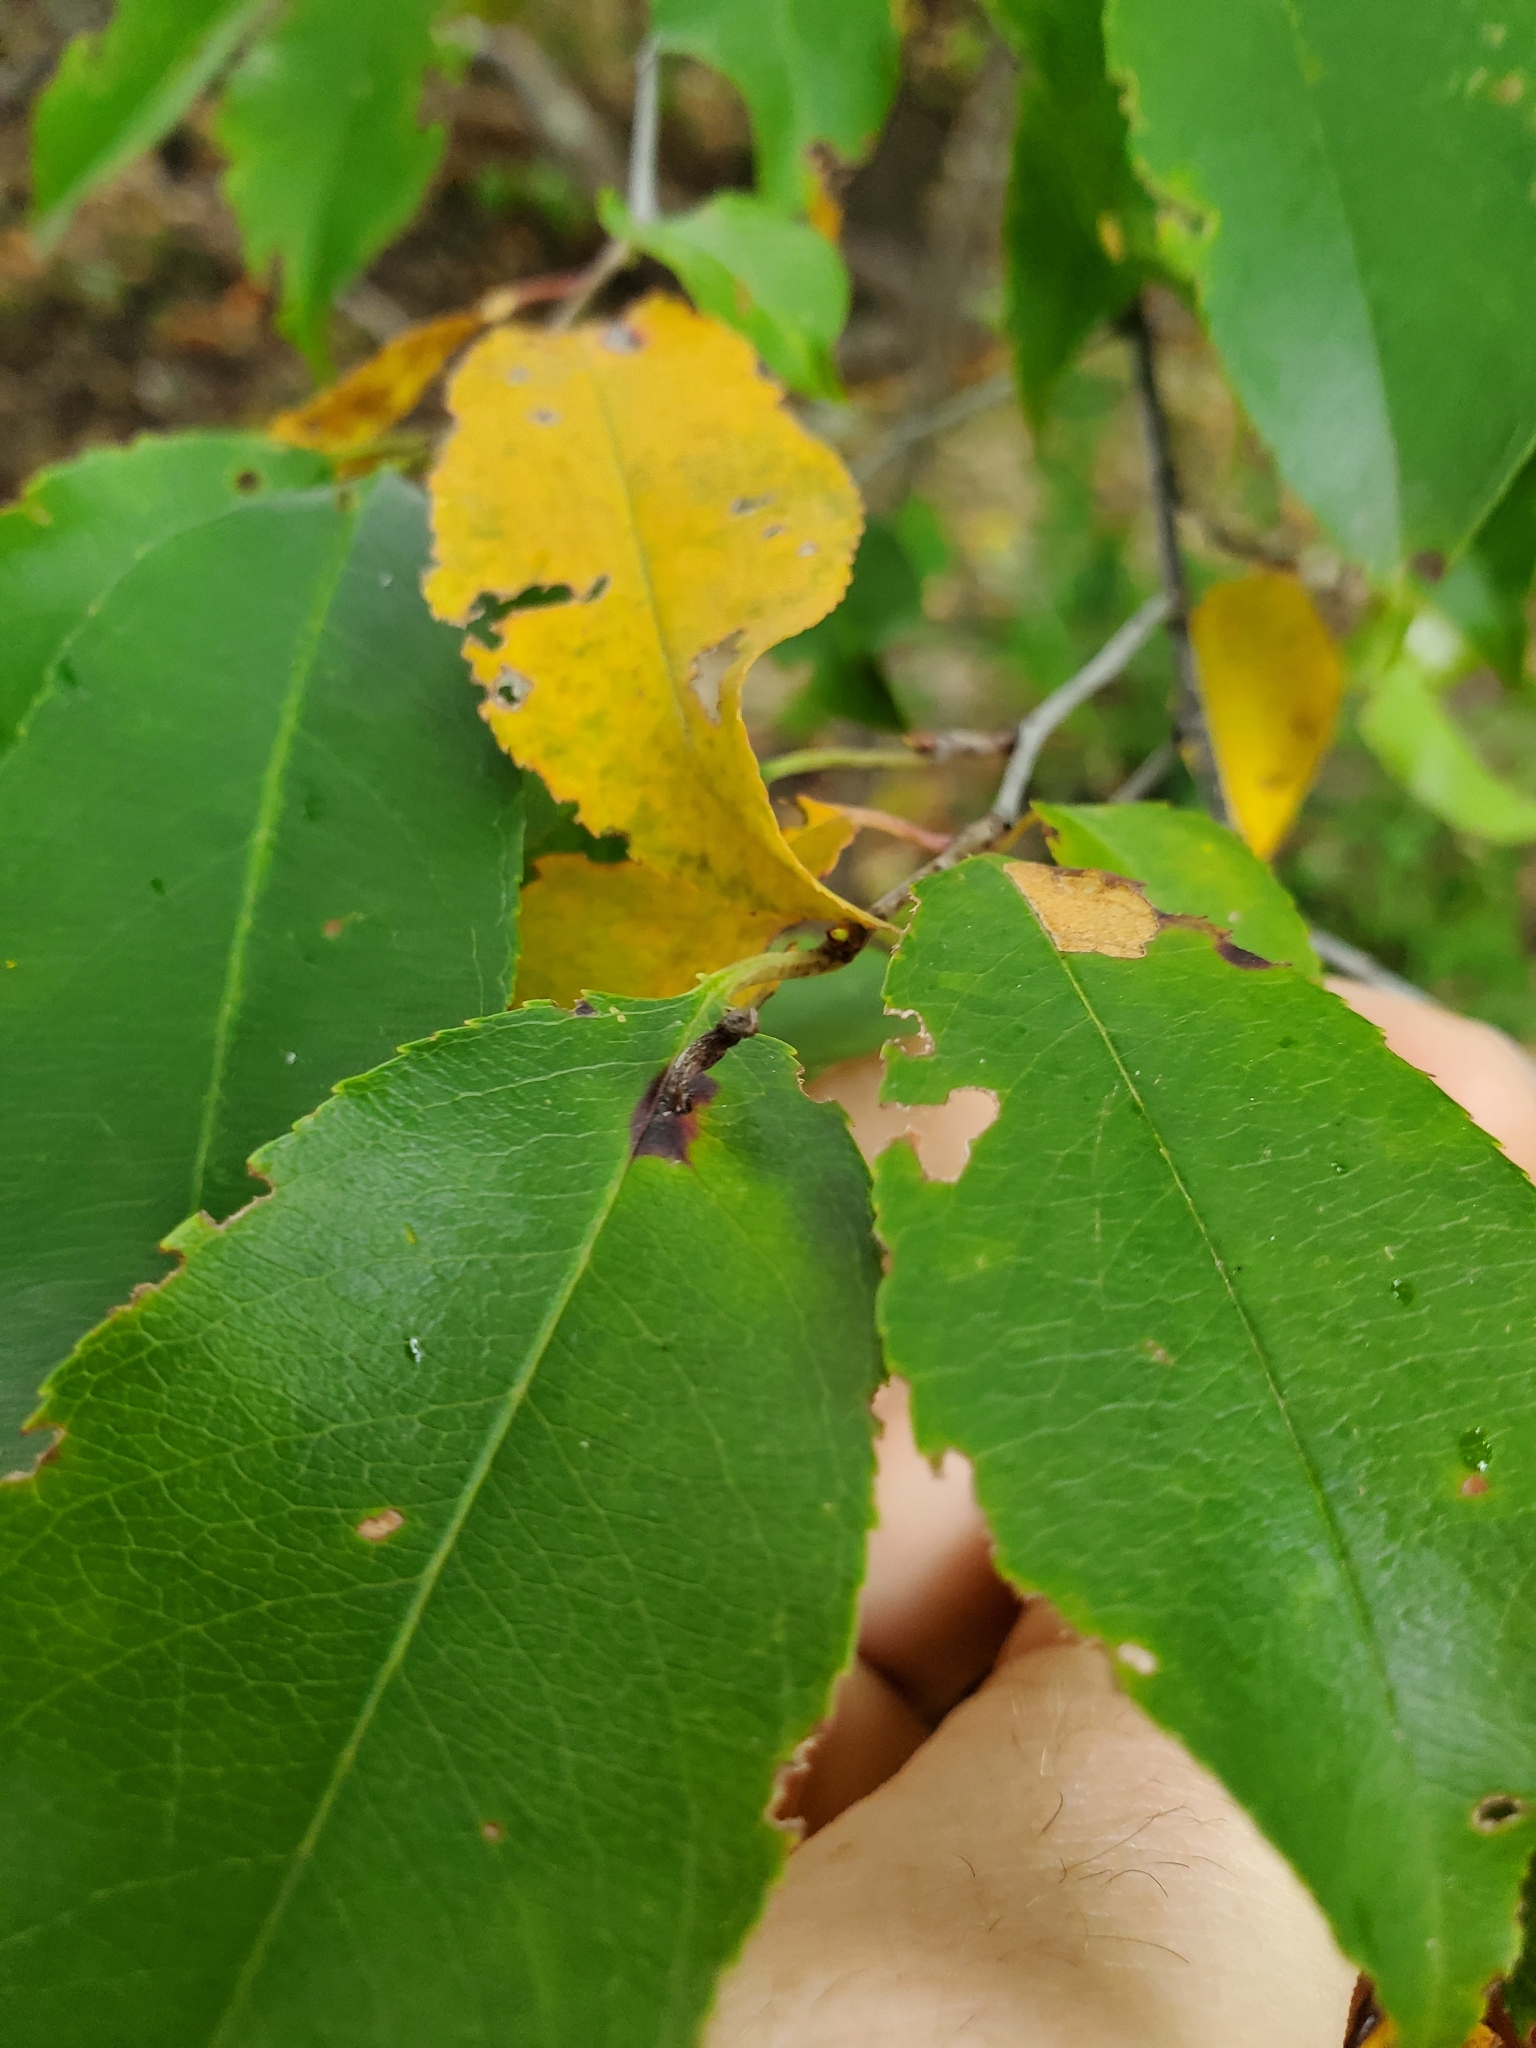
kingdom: Animalia
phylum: Arthropoda
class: Arachnida
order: Trombidiformes
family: Eriophyidae
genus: Eriophyes
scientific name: Eriophyes
